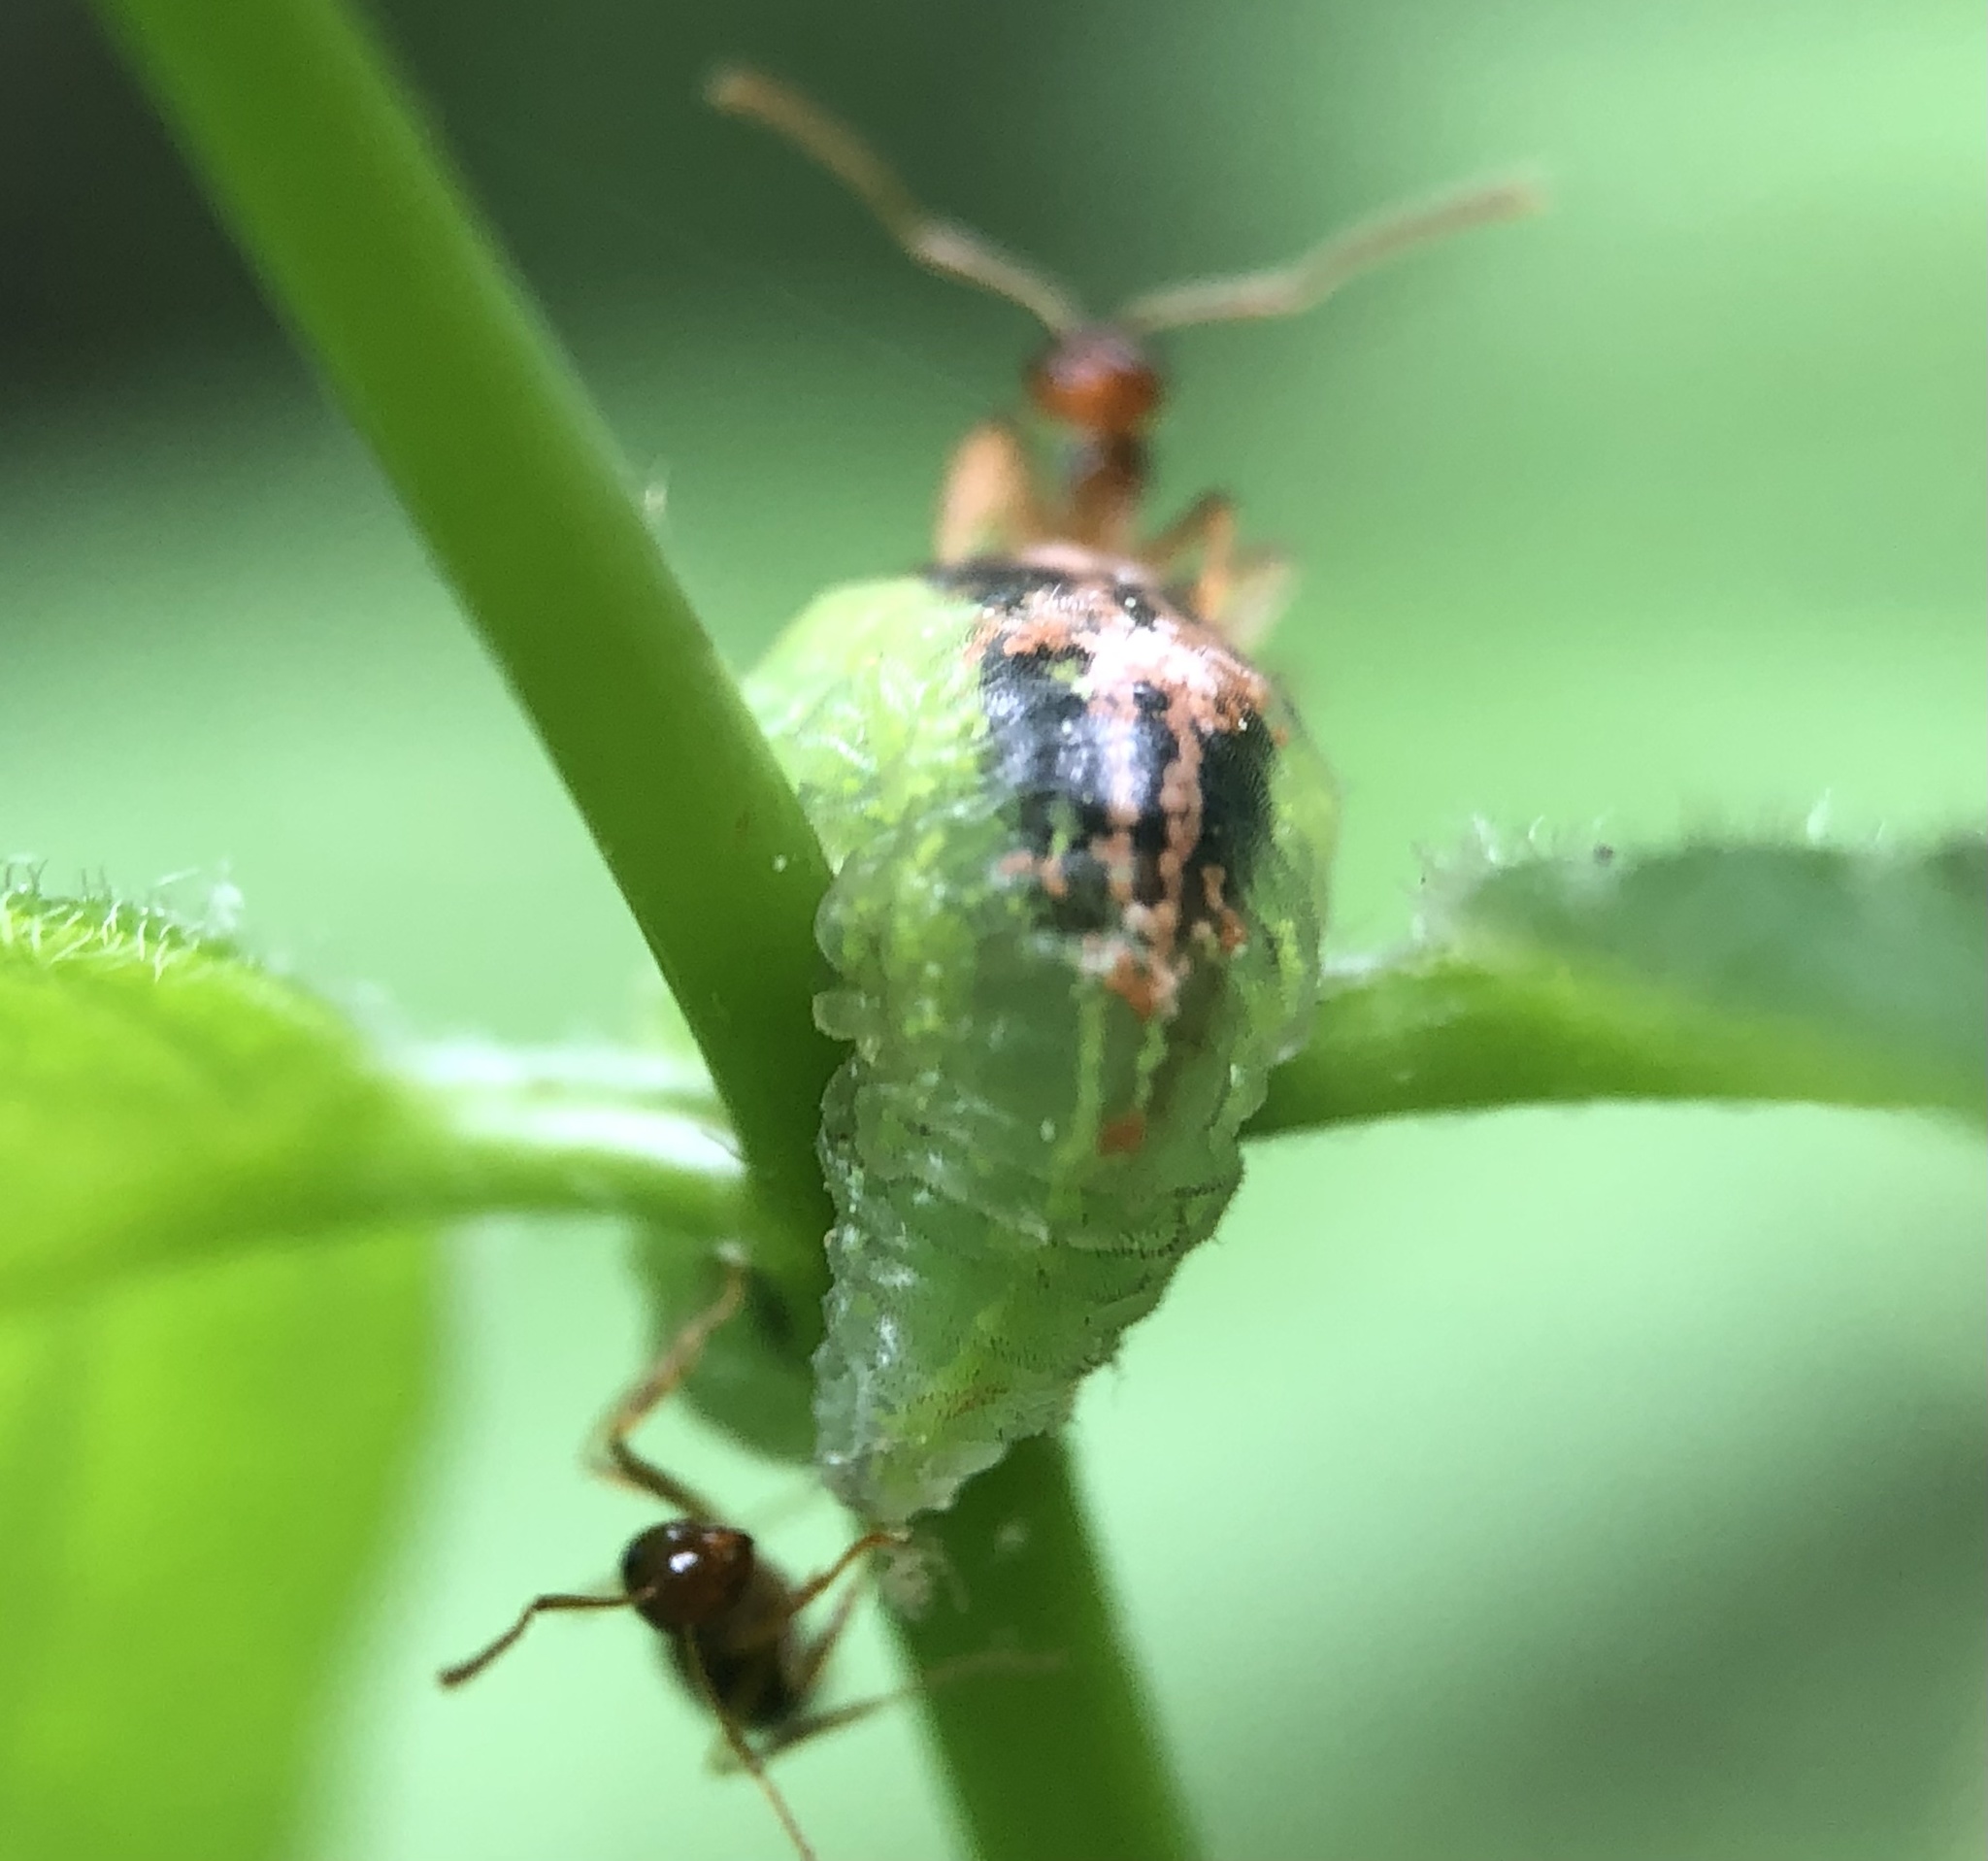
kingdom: Animalia
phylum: Arthropoda
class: Insecta
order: Diptera
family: Syrphidae
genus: Eupeodes
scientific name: Eupeodes pomus
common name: Short-tailed aphideater
